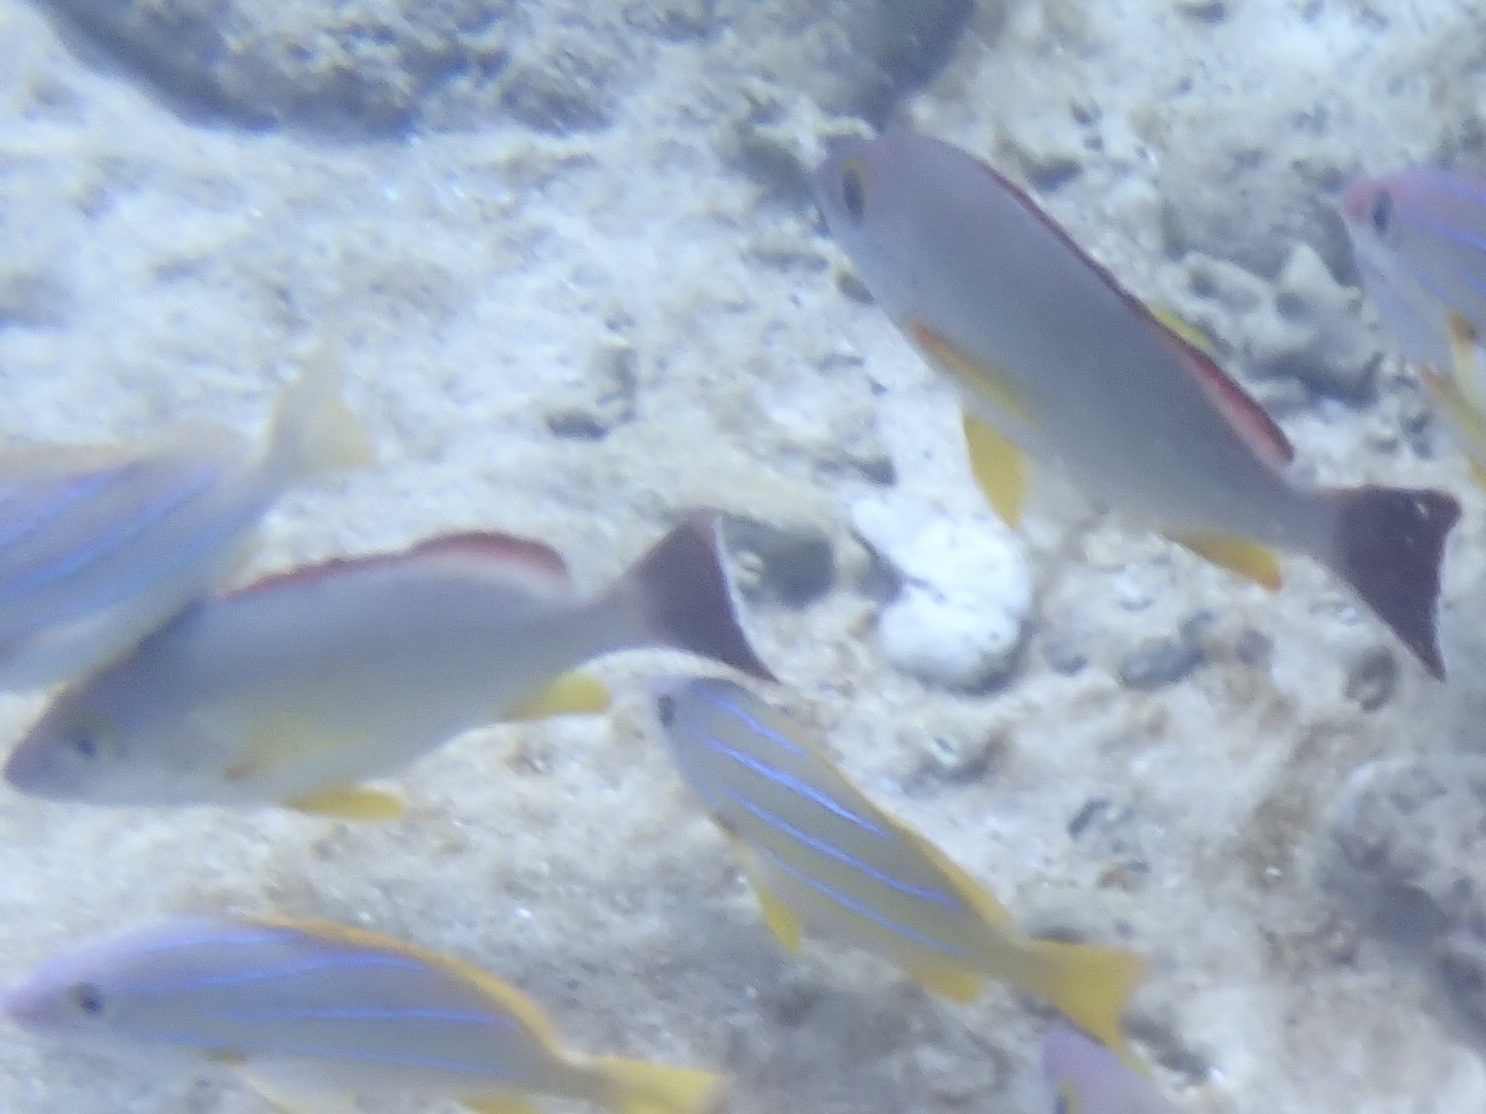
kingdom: Animalia
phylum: Chordata
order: Perciformes
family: Lutjanidae
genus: Lutjanus
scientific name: Lutjanus fulvus
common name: Blacktail snapper
